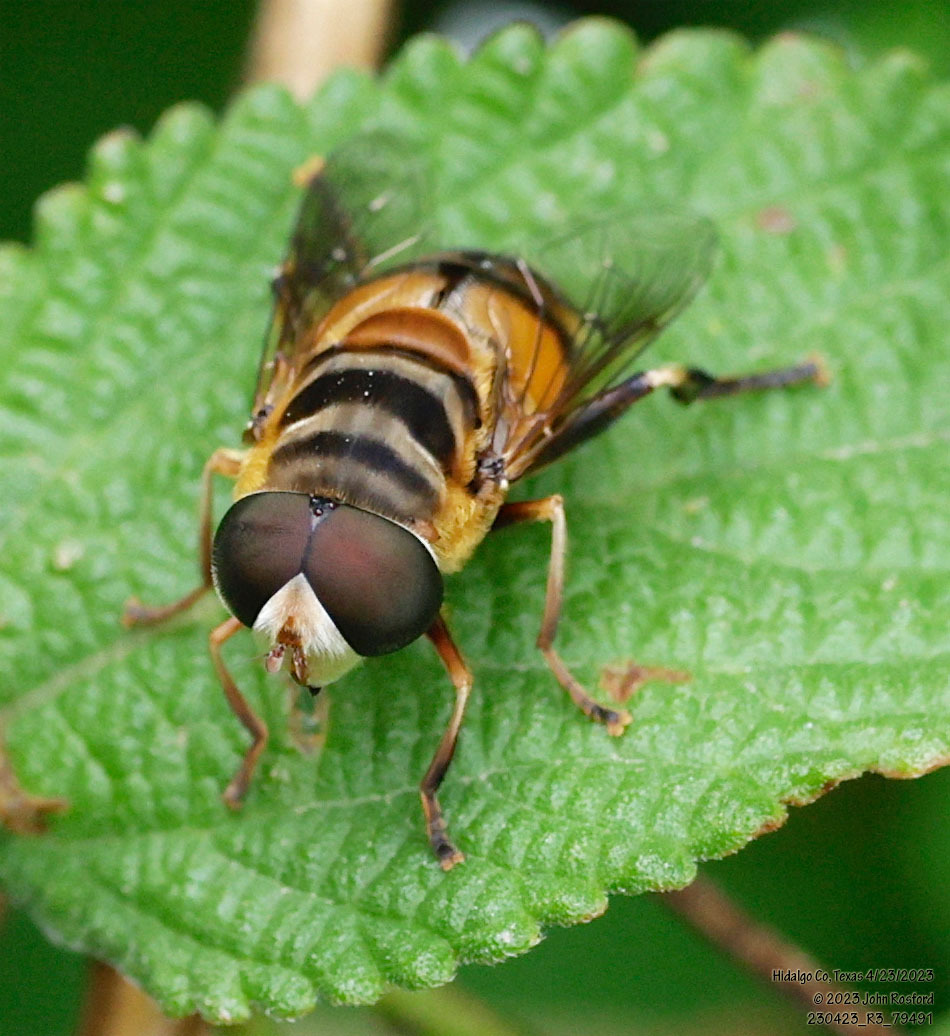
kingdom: Animalia
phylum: Arthropoda
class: Insecta
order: Diptera
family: Syrphidae
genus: Palpada
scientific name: Palpada vinetorum
